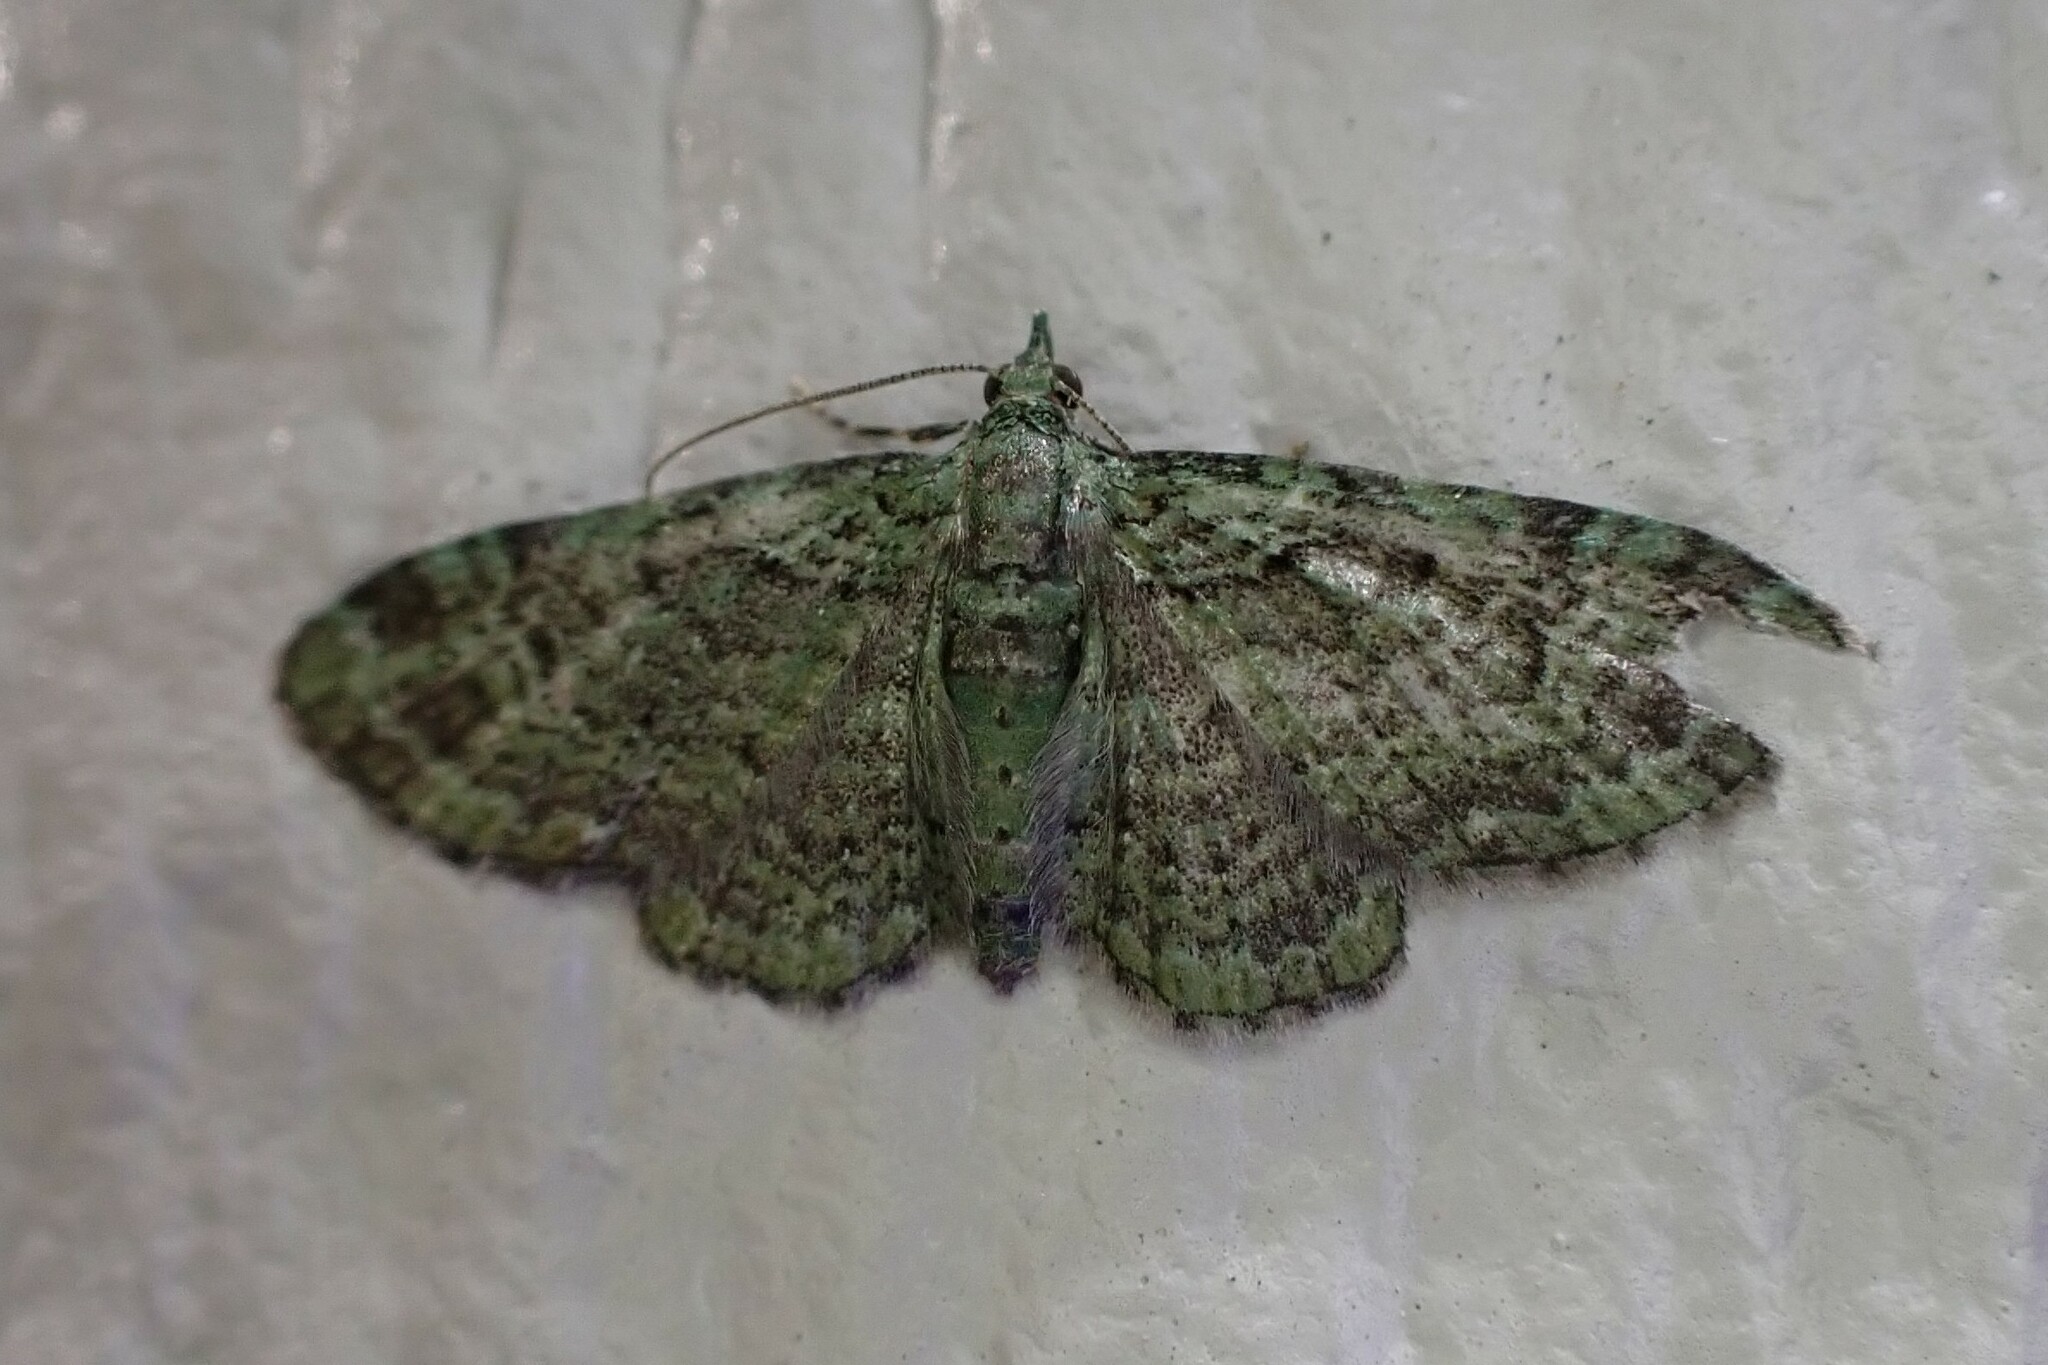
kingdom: Animalia
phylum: Arthropoda
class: Insecta
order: Lepidoptera
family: Geometridae
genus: Pasiphila
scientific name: Pasiphila rectangulata
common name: Green pug
